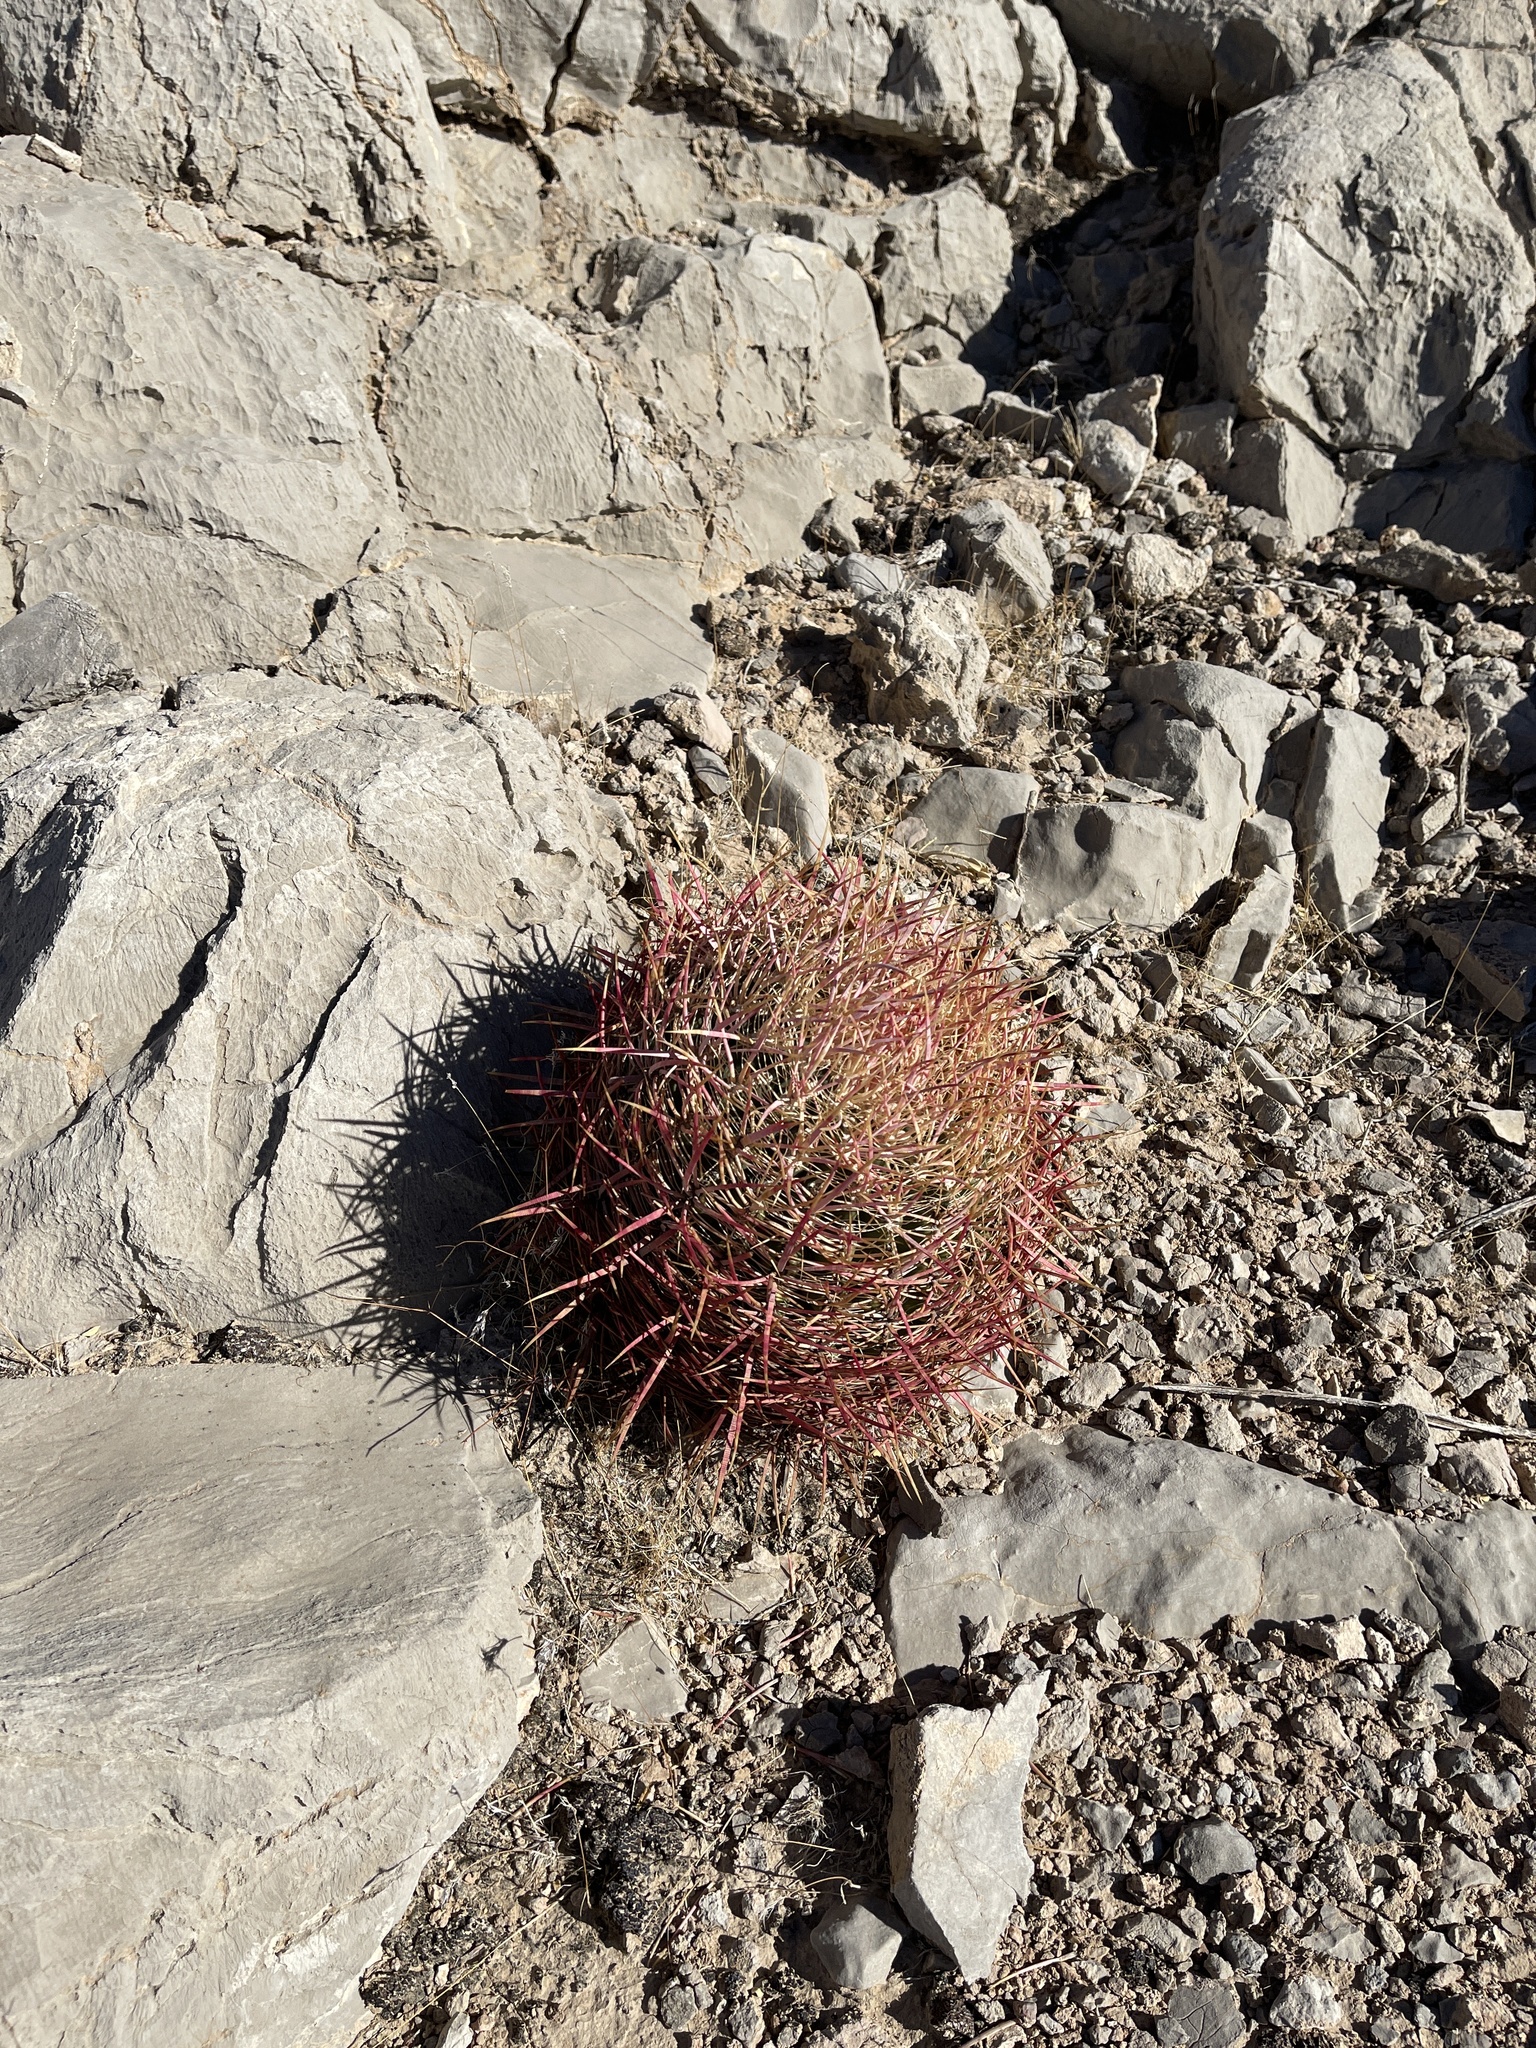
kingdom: Plantae
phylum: Tracheophyta
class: Magnoliopsida
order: Caryophyllales
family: Cactaceae
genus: Ferocactus
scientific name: Ferocactus cylindraceus
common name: California barrel cactus
